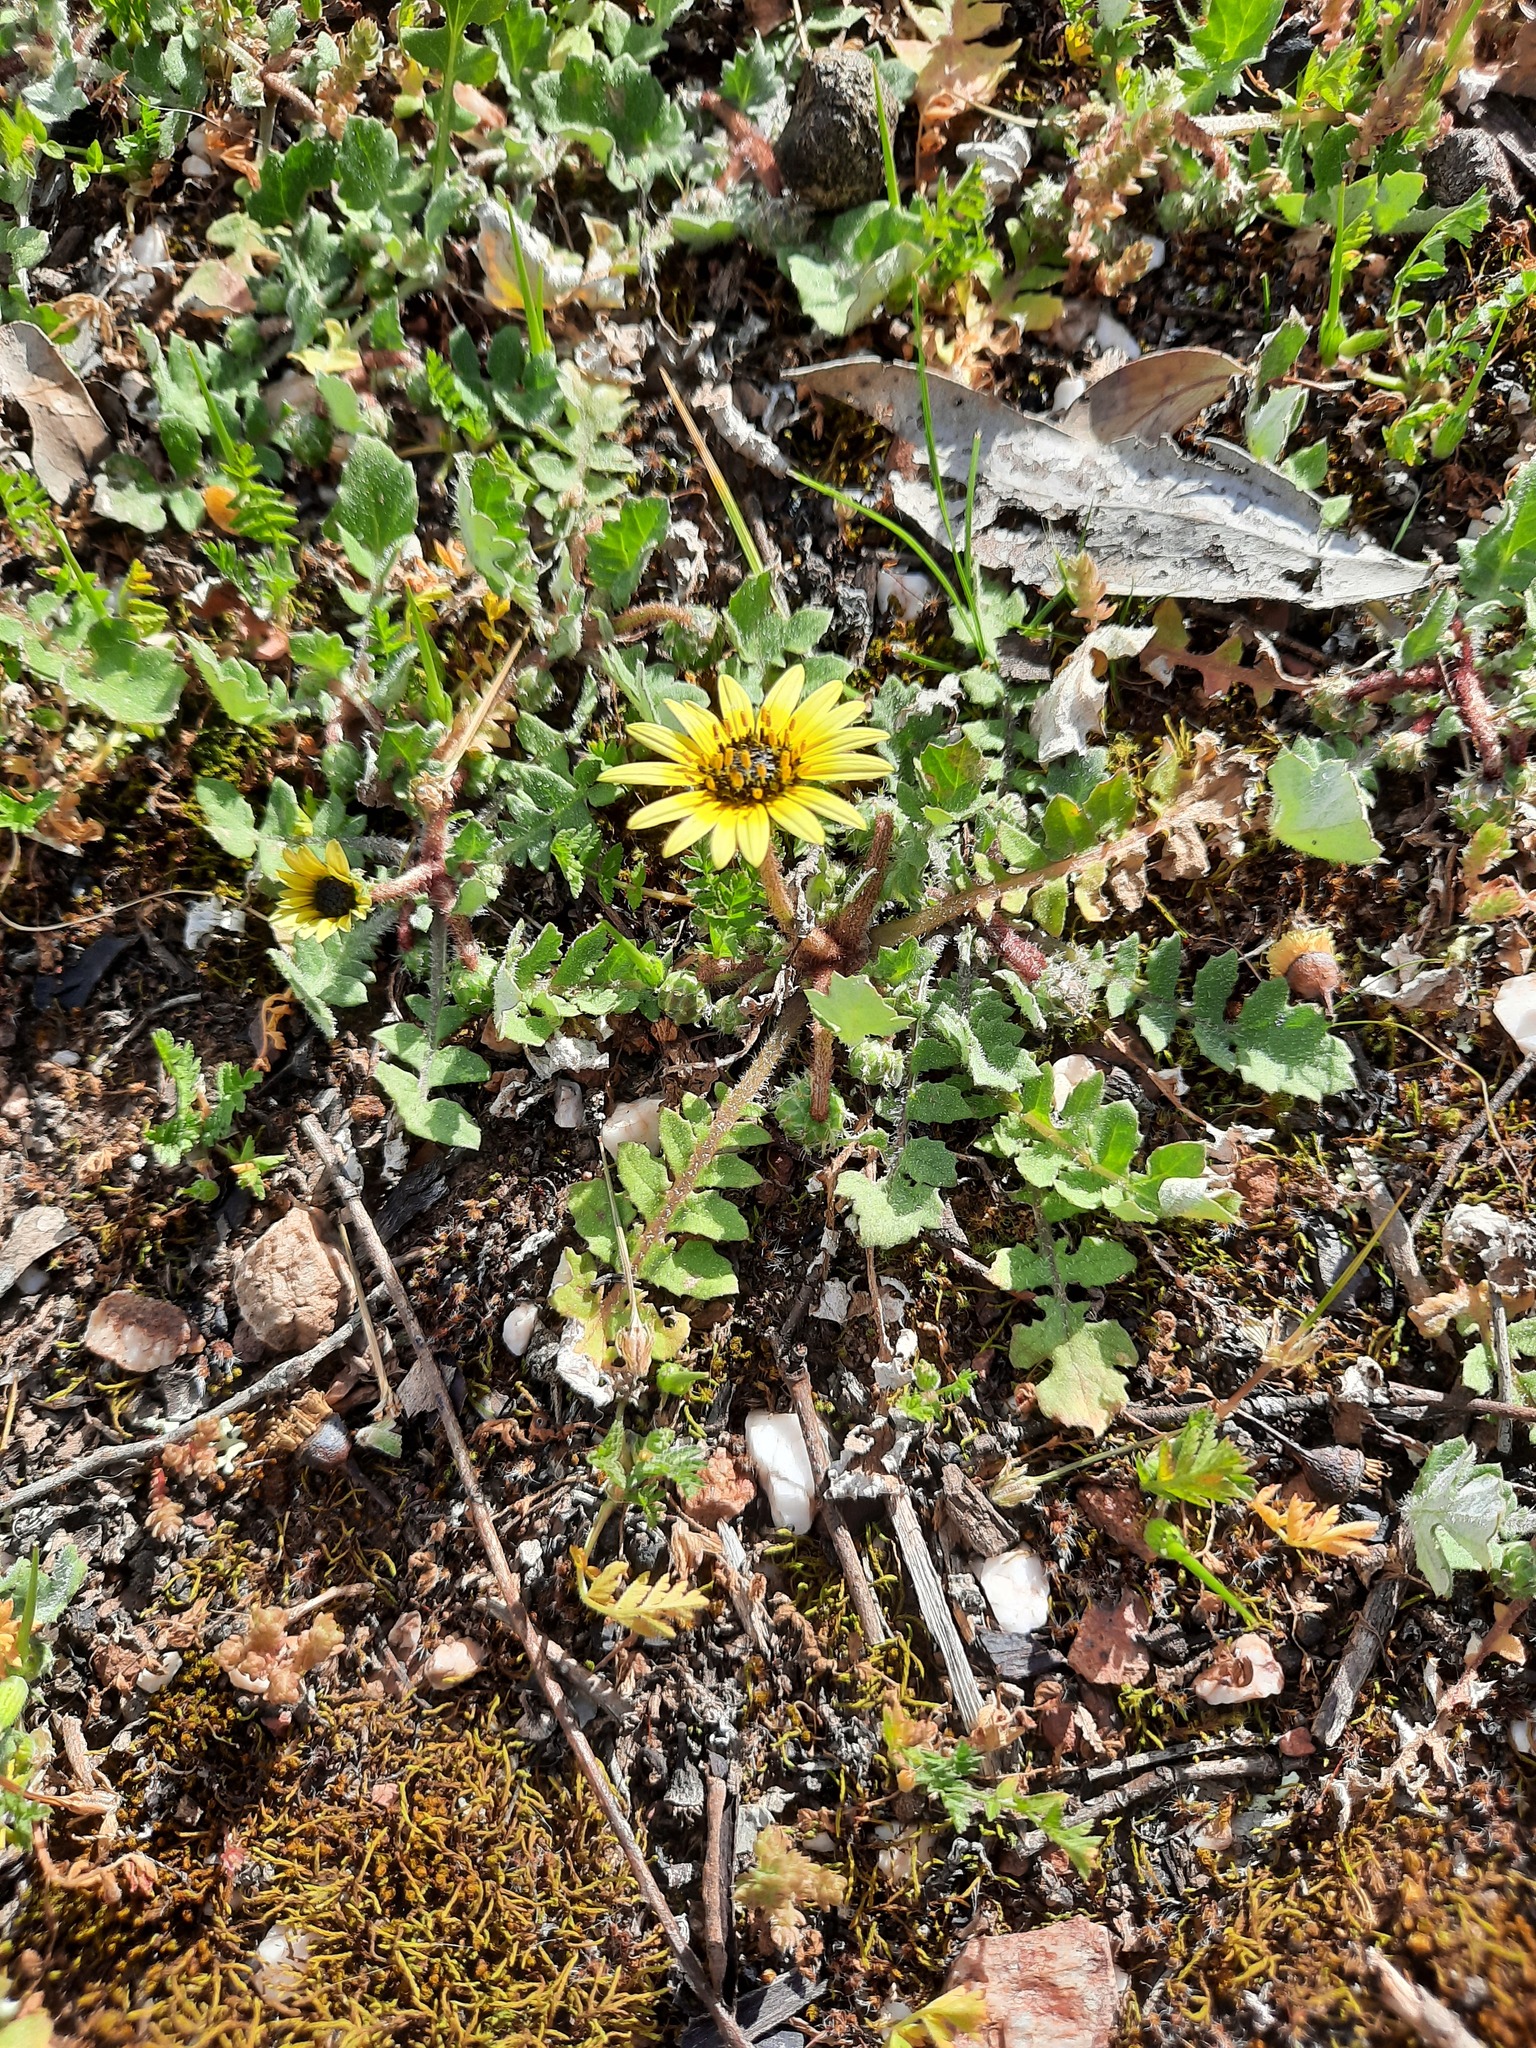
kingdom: Plantae
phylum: Tracheophyta
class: Magnoliopsida
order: Asterales
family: Asteraceae
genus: Arctotheca
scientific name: Arctotheca calendula
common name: Capeweed
